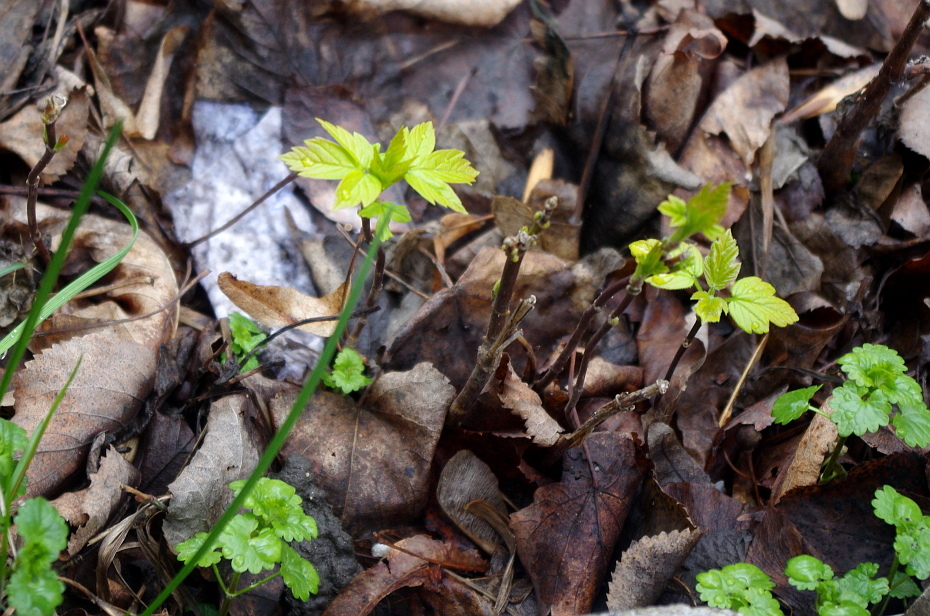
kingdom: Plantae
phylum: Tracheophyta
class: Magnoliopsida
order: Sapindales
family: Sapindaceae
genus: Acer
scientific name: Acer negundo
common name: Ashleaf maple
